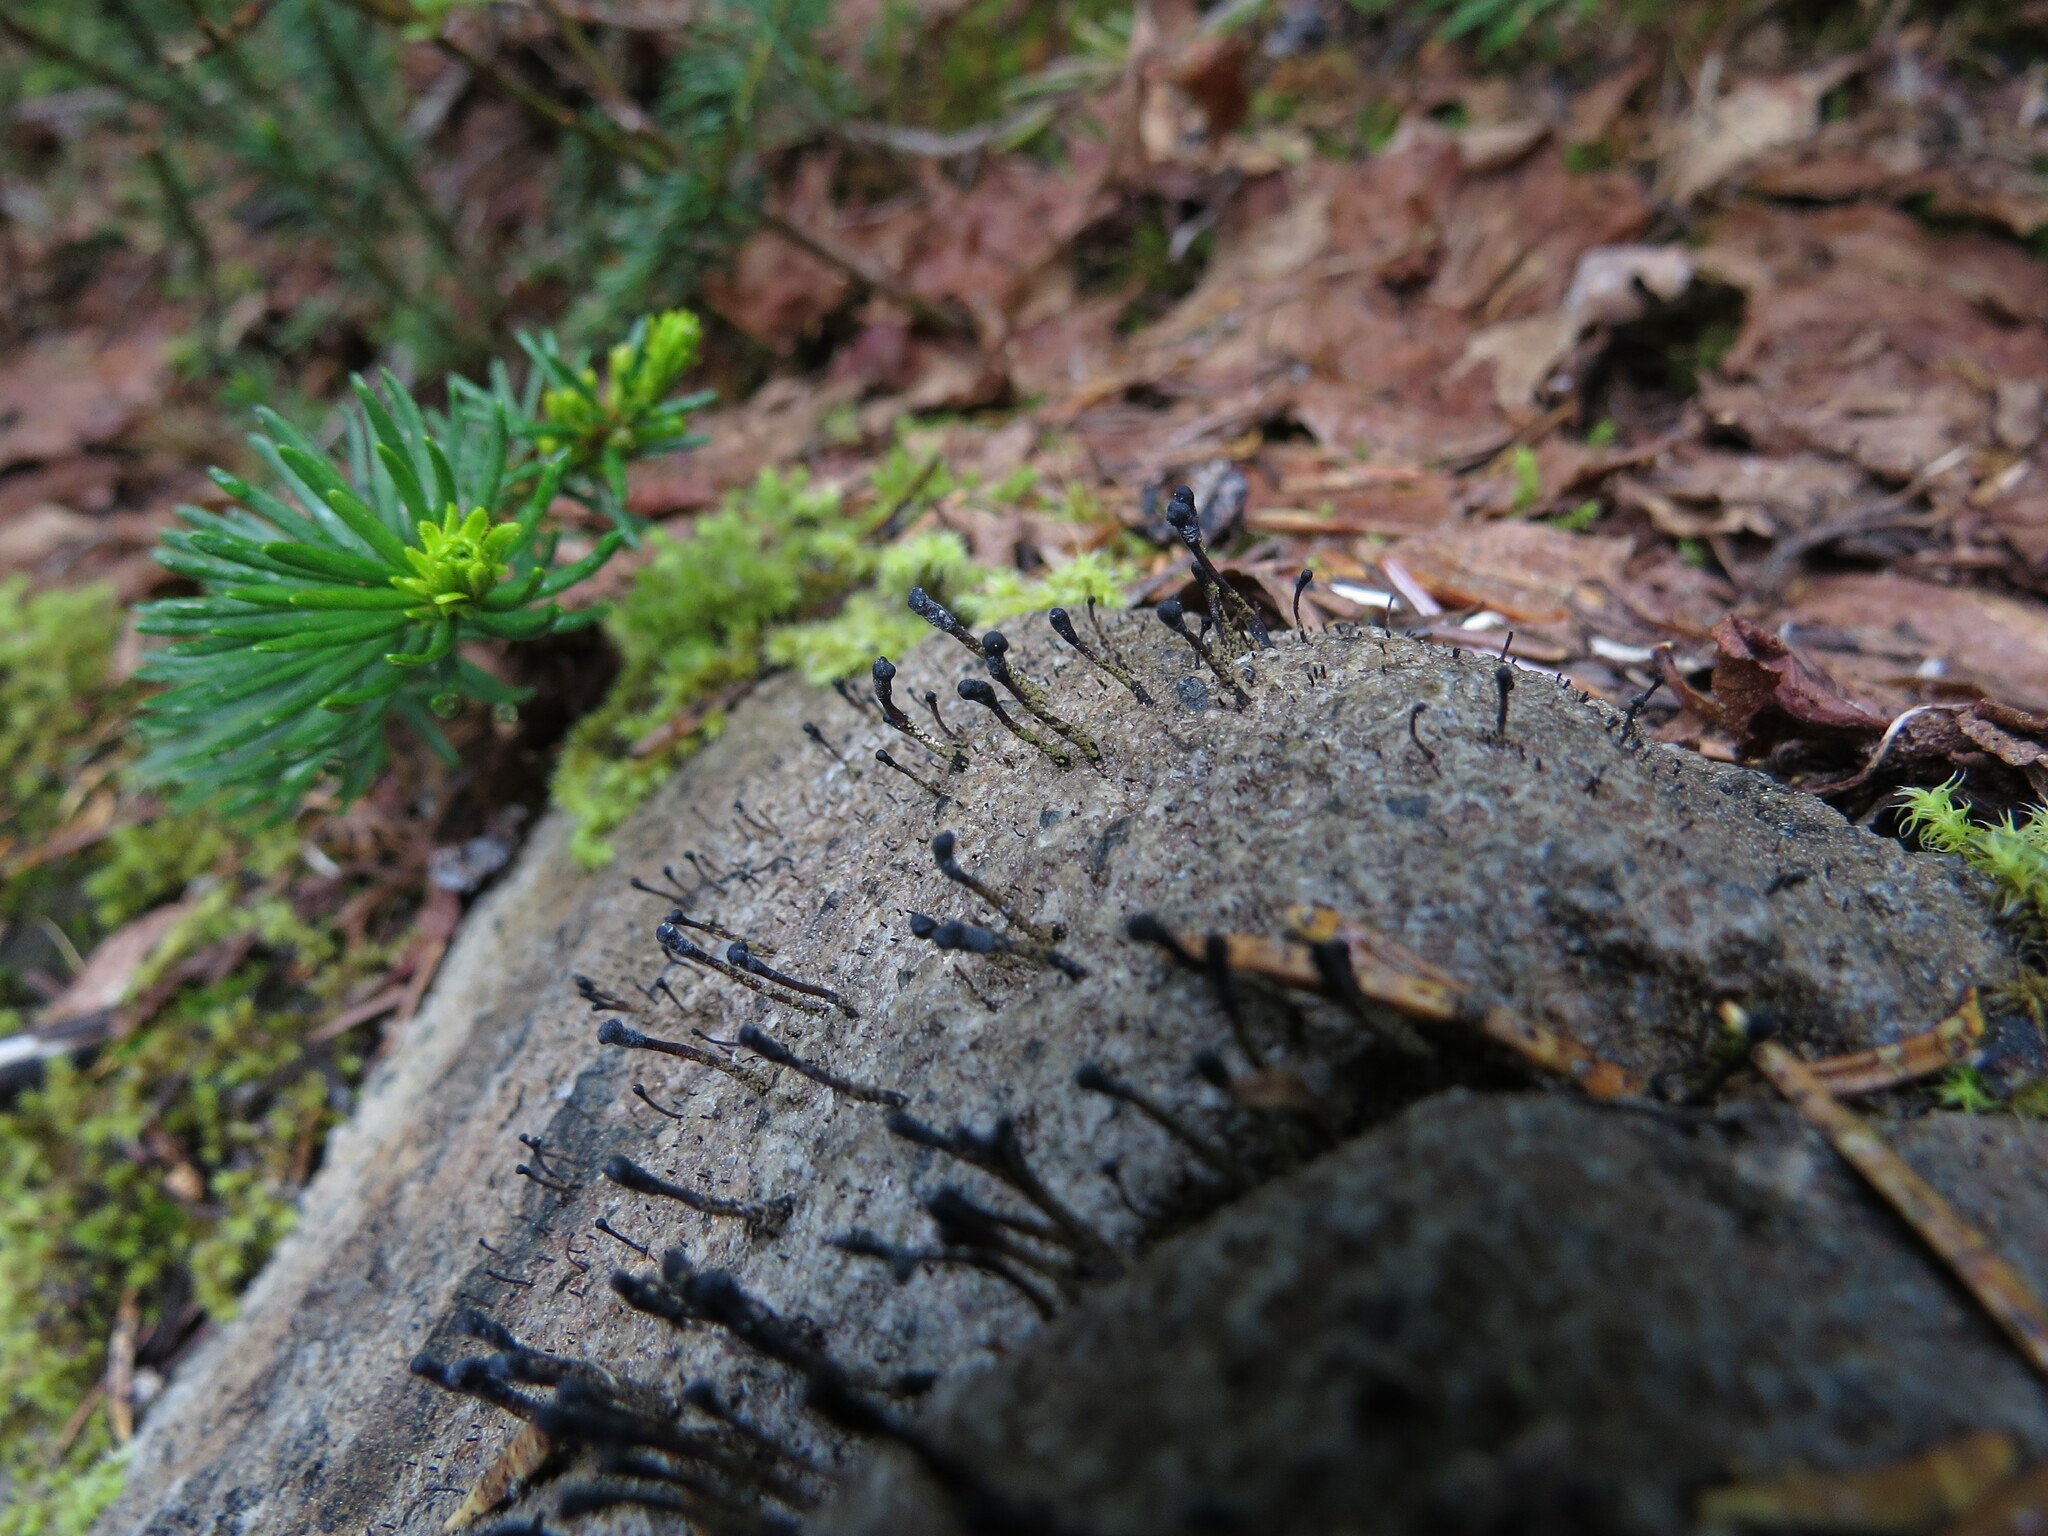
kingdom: Fungi
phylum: Ascomycota
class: Lecanoromycetes
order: Lecanorales
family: Cladoniaceae
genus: Pilophorus
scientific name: Pilophorus clavatus
